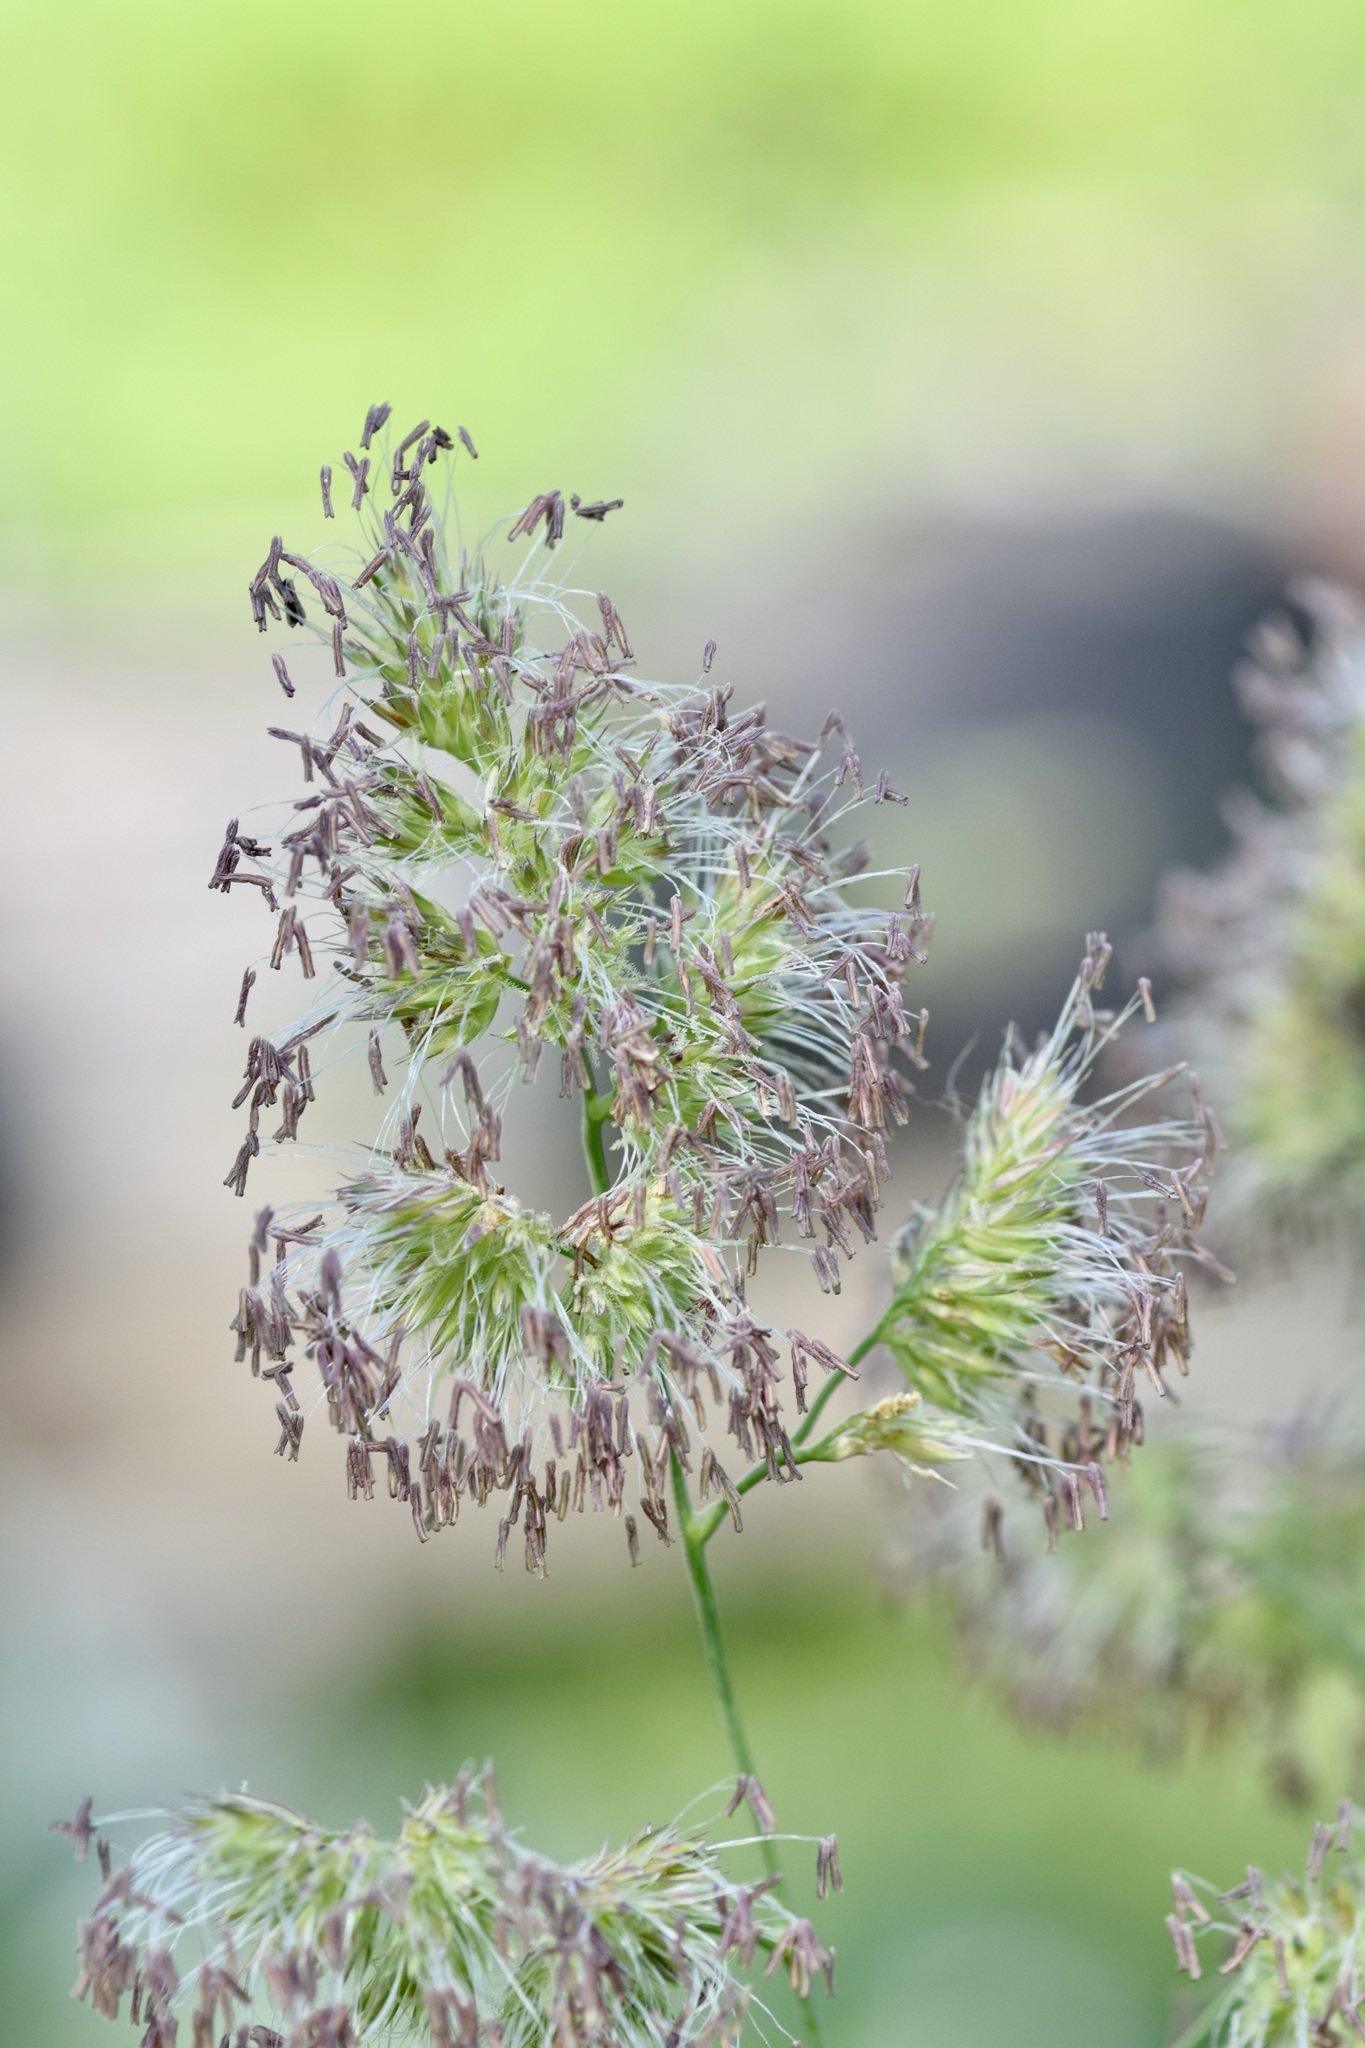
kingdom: Plantae
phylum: Tracheophyta
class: Liliopsida
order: Poales
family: Poaceae
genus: Dactylis
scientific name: Dactylis glomerata
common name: Orchardgrass
